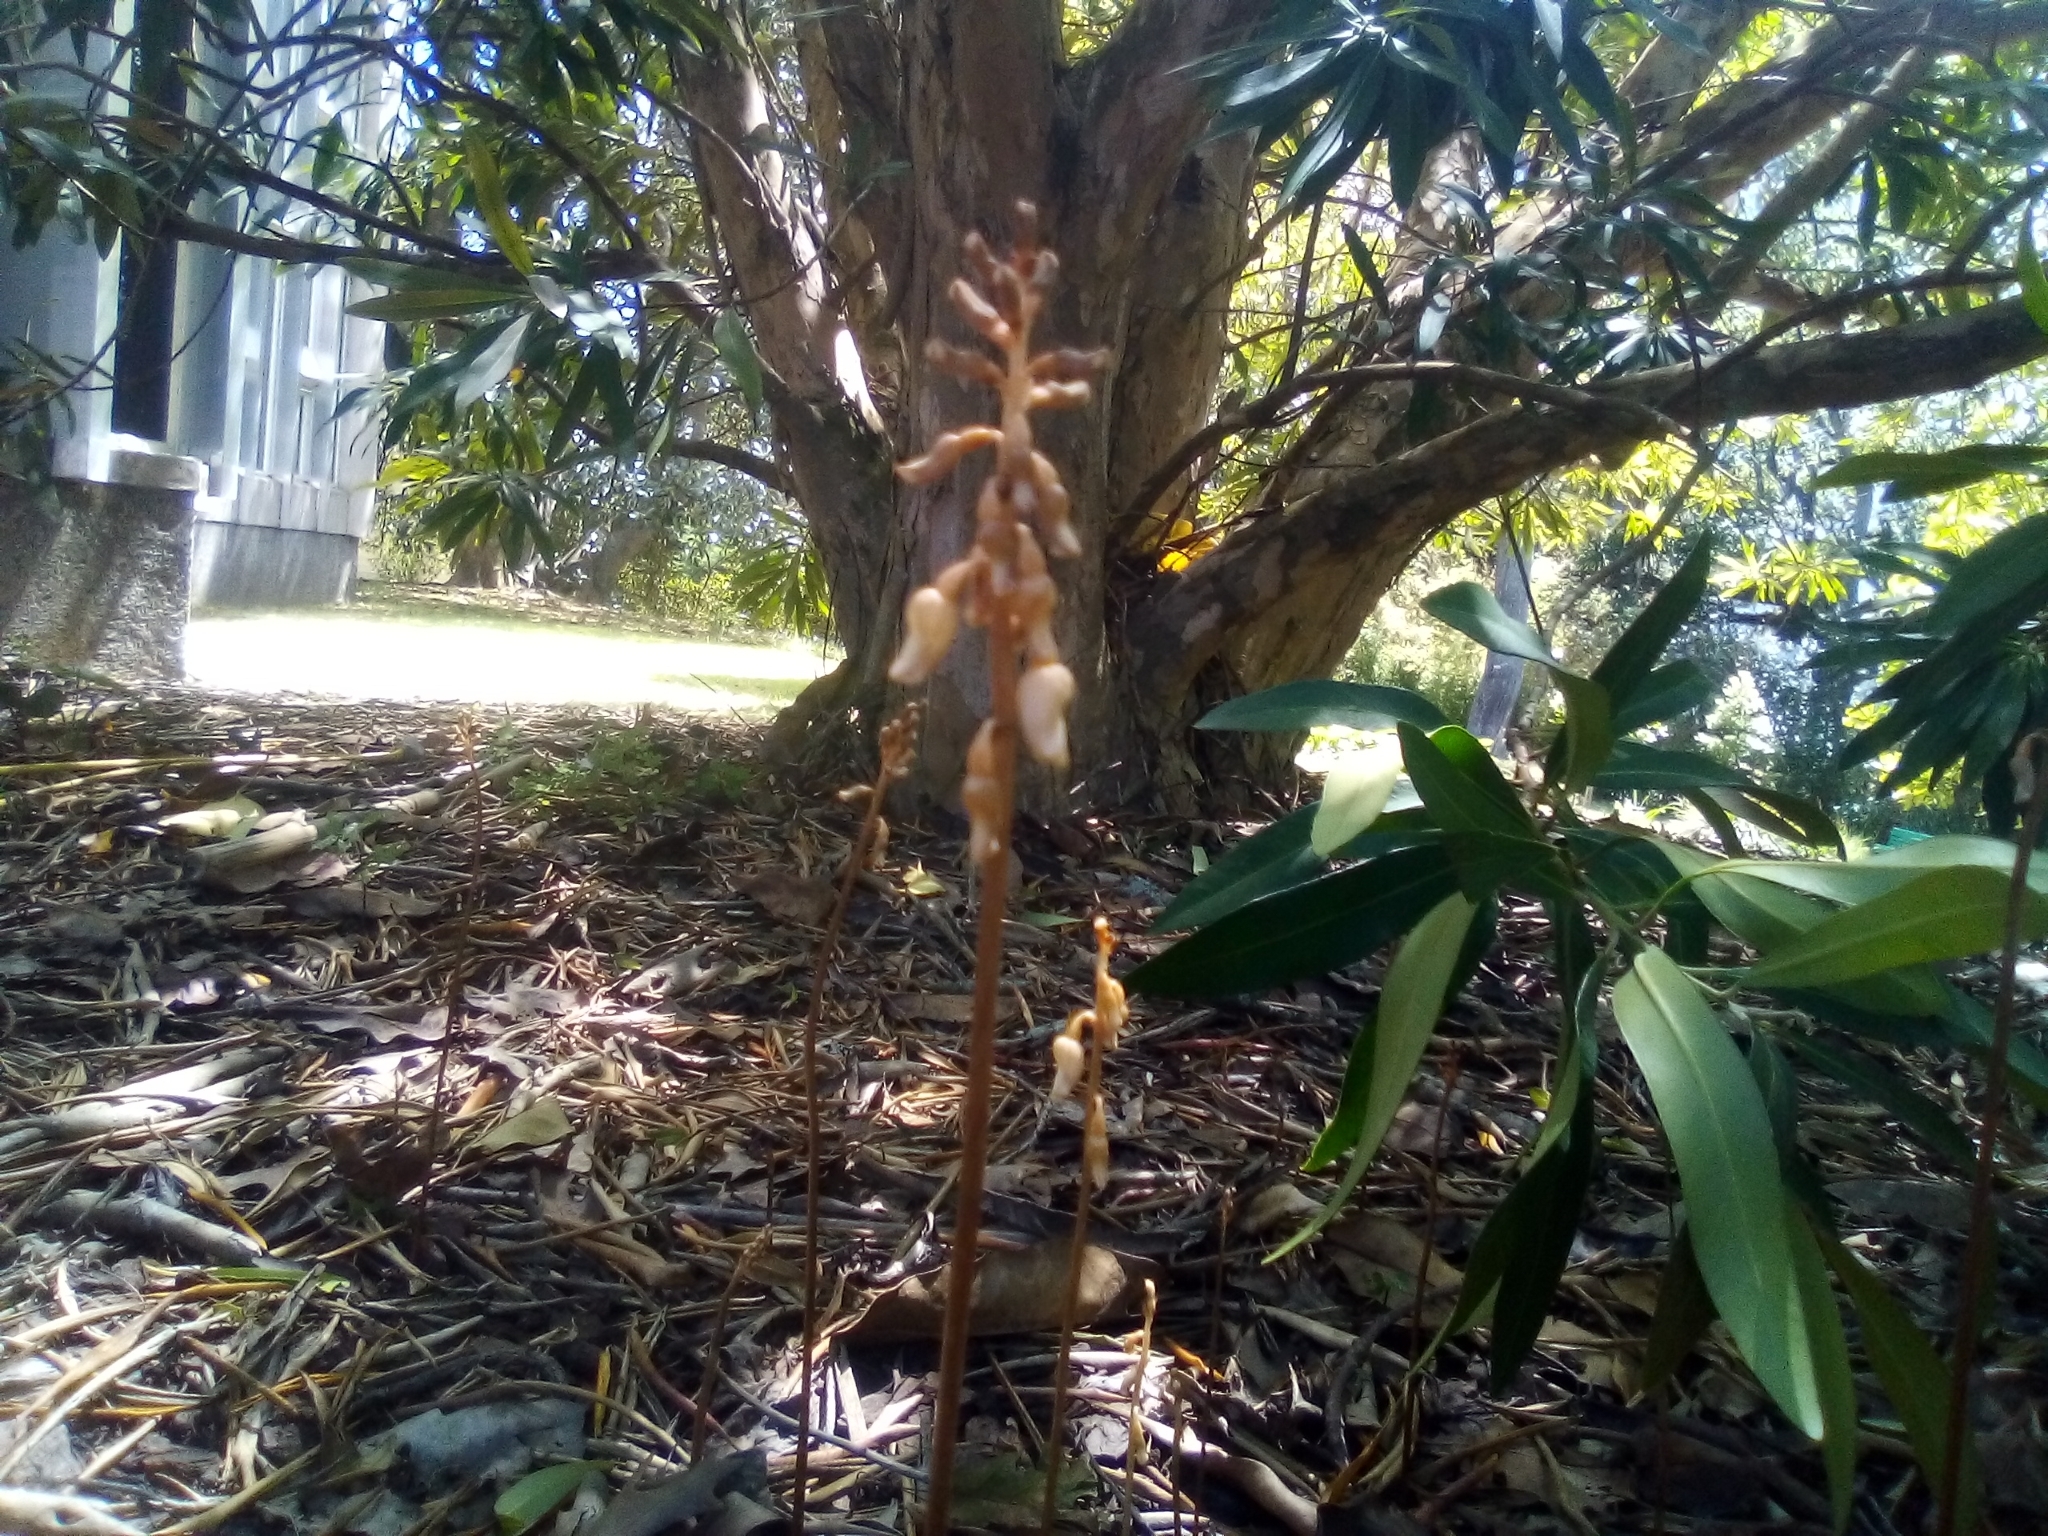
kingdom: Plantae
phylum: Tracheophyta
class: Liliopsida
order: Asparagales
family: Orchidaceae
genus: Gastrodia
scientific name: Gastrodia sesamoides
